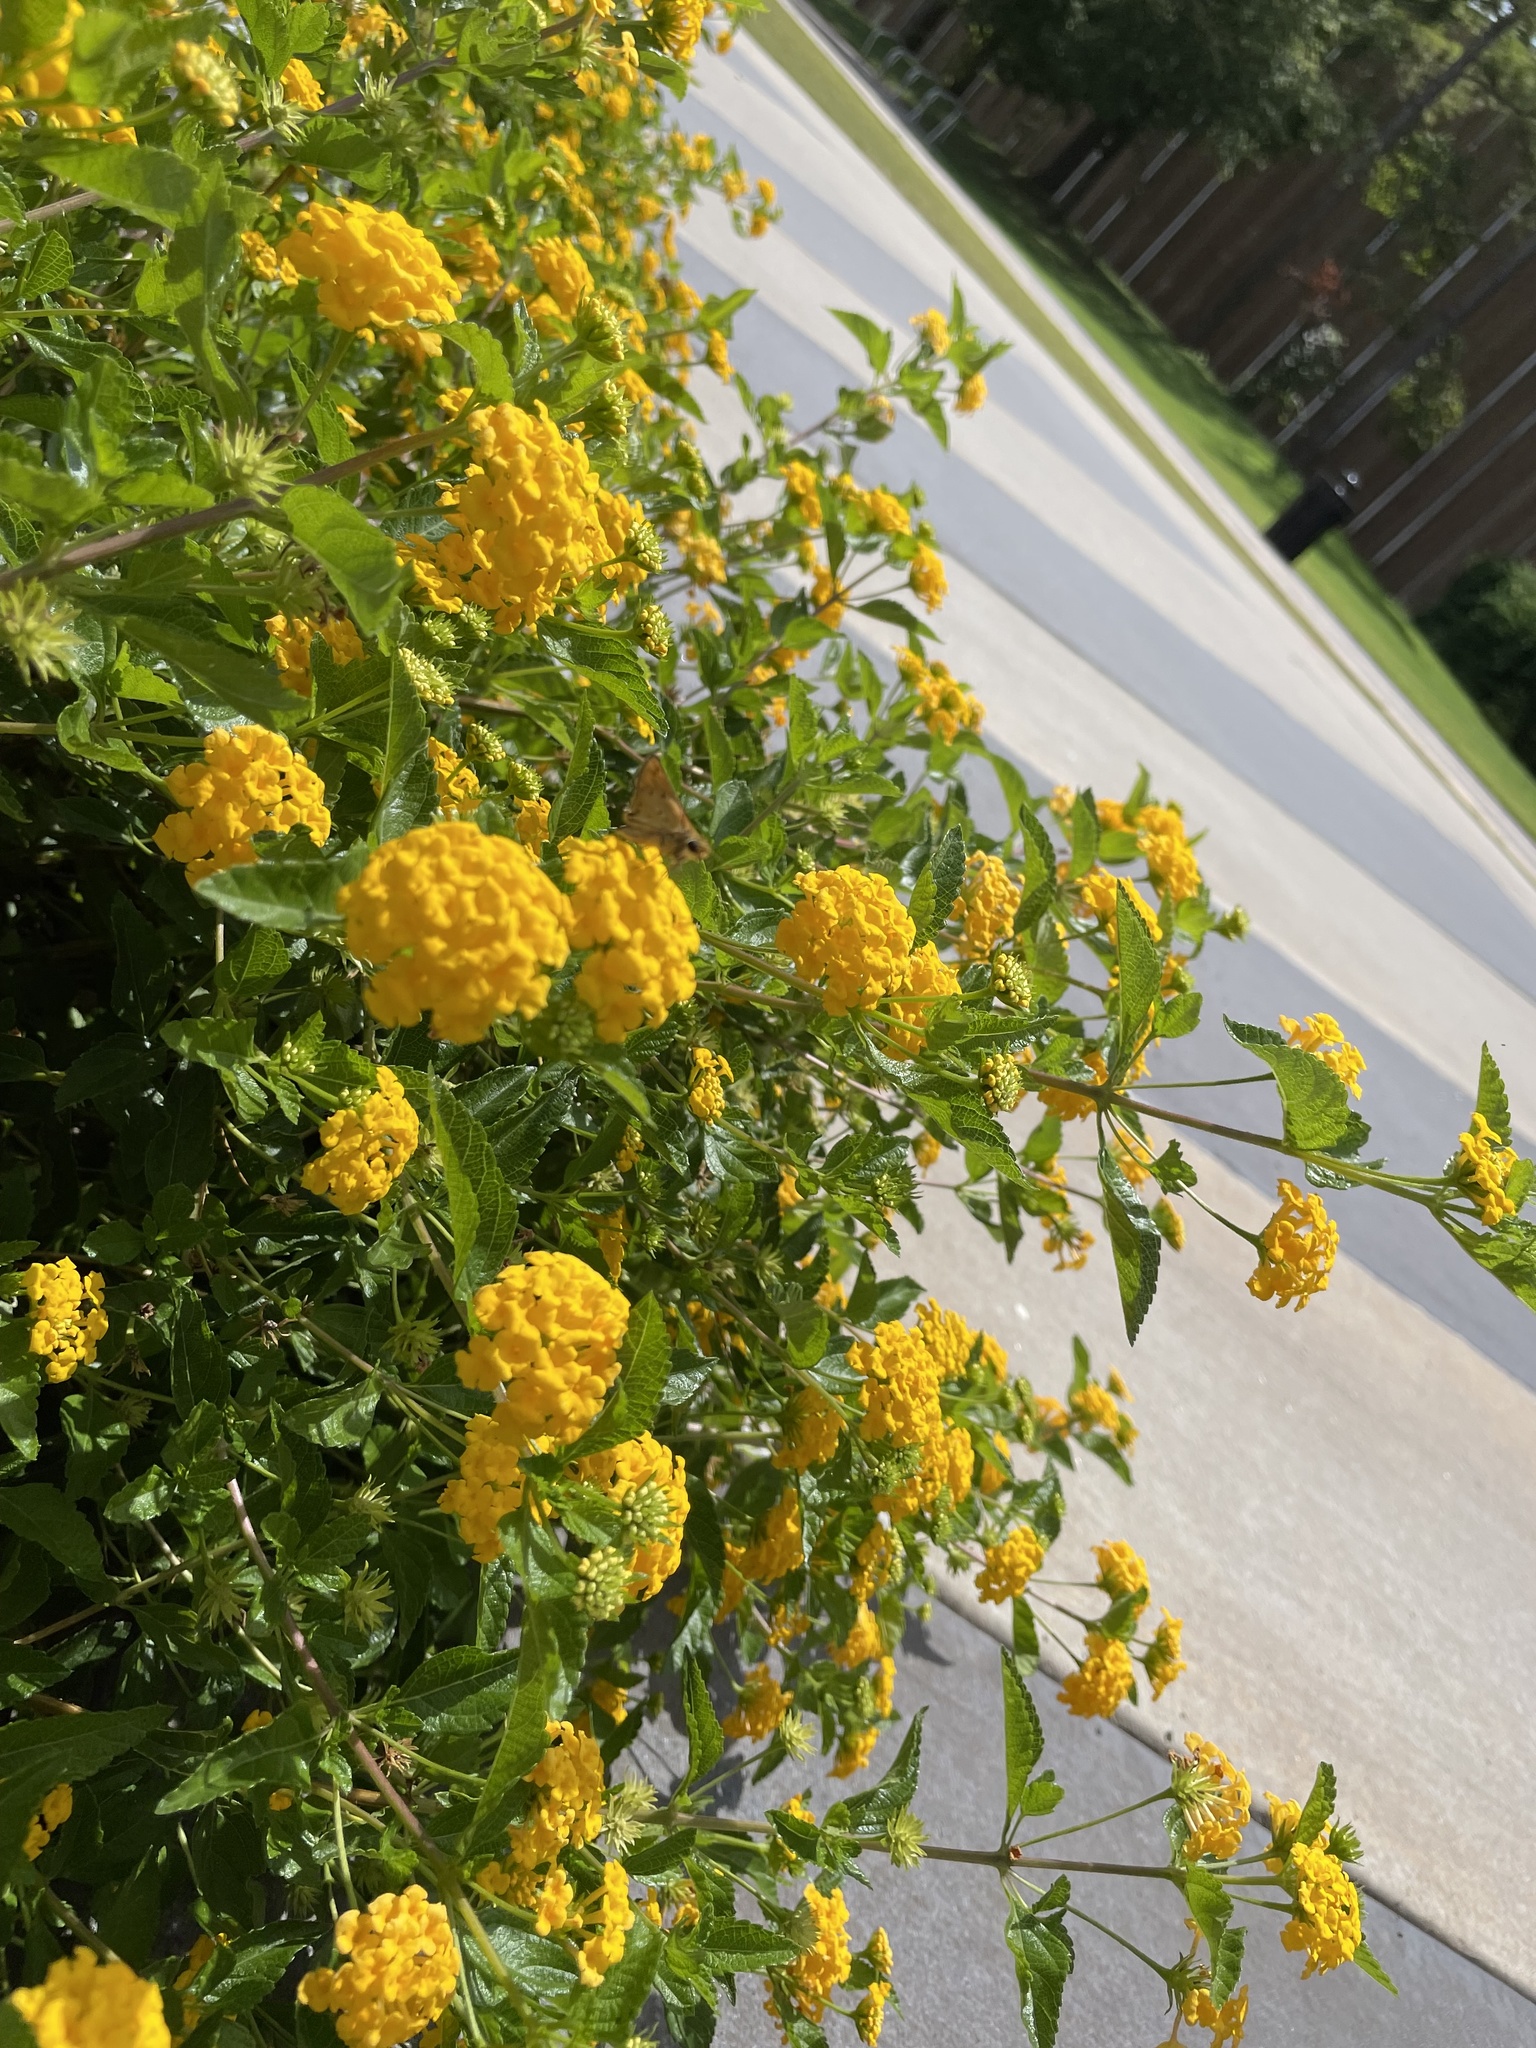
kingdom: Animalia
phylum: Arthropoda
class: Insecta
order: Lepidoptera
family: Hesperiidae
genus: Hylephila
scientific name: Hylephila phyleus
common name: Fiery skipper
